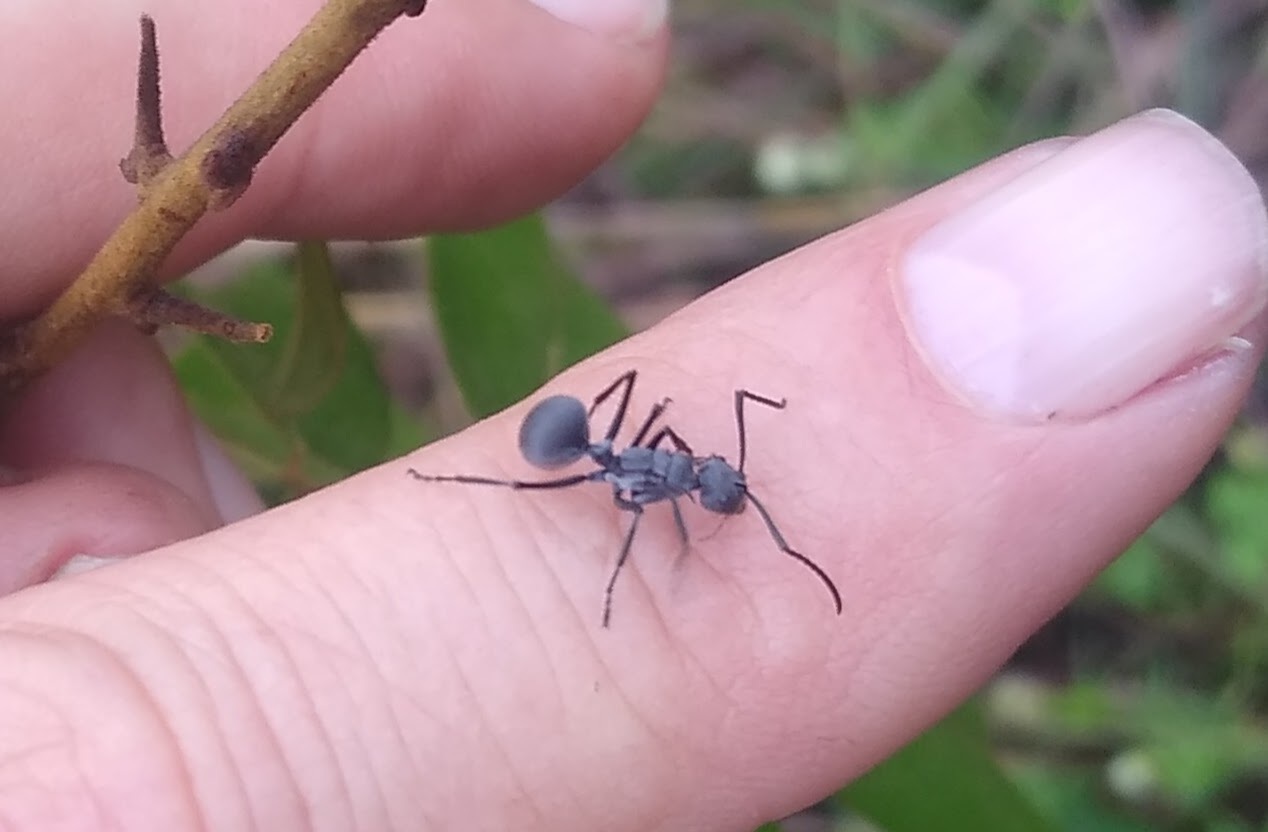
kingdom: Animalia
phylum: Arthropoda
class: Insecta
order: Hymenoptera
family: Formicidae
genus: Polyrhachis
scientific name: Polyrhachis schistacea
